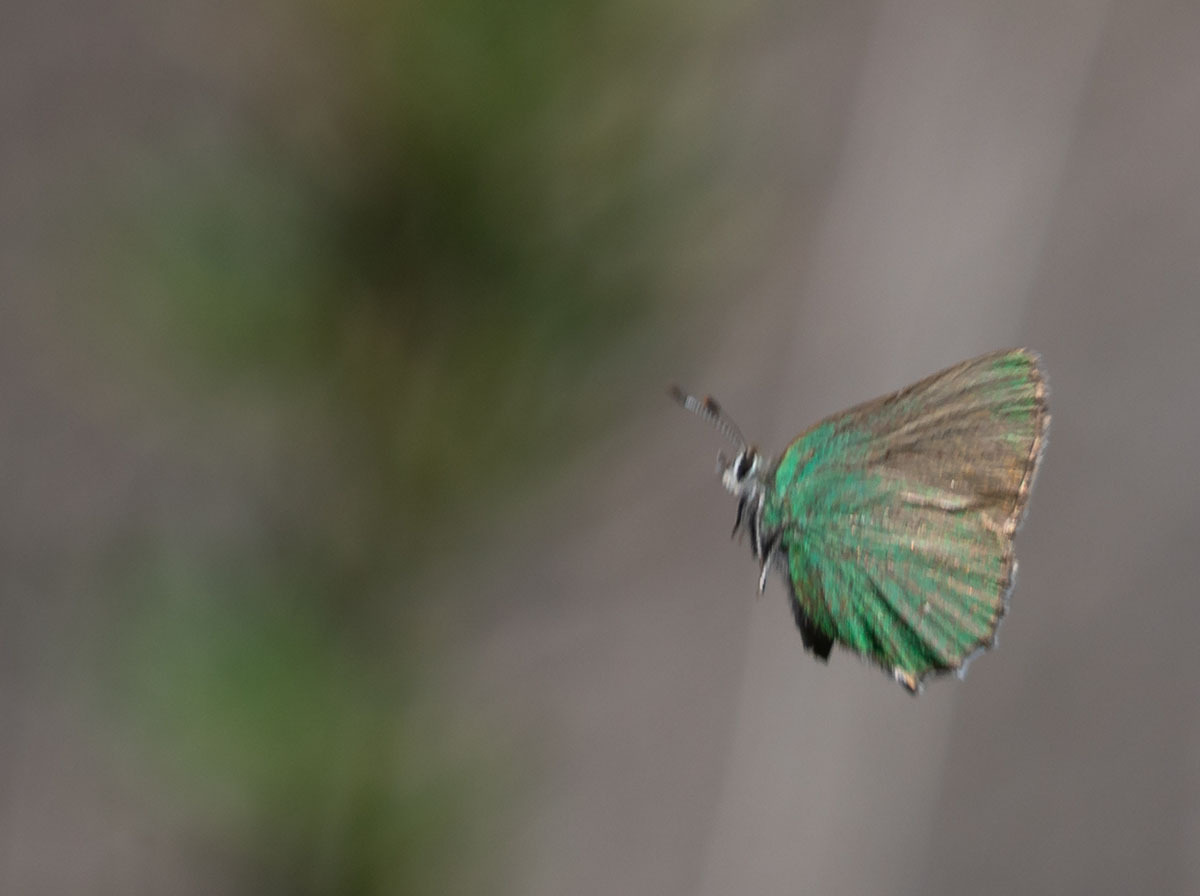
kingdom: Animalia
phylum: Arthropoda
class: Insecta
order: Lepidoptera
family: Lycaenidae
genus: Callophrys
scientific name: Callophrys dumetorum
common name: Bramble hairstreak
